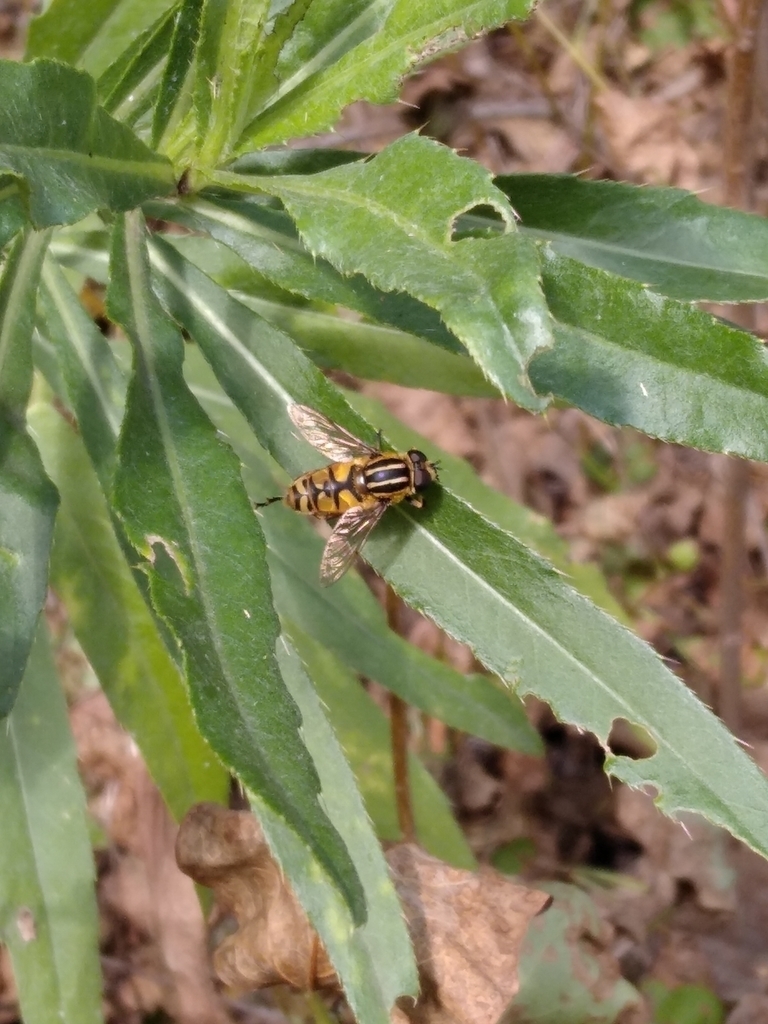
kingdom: Animalia
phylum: Arthropoda
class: Insecta
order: Diptera
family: Syrphidae
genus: Helophilus
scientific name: Helophilus pendulus
